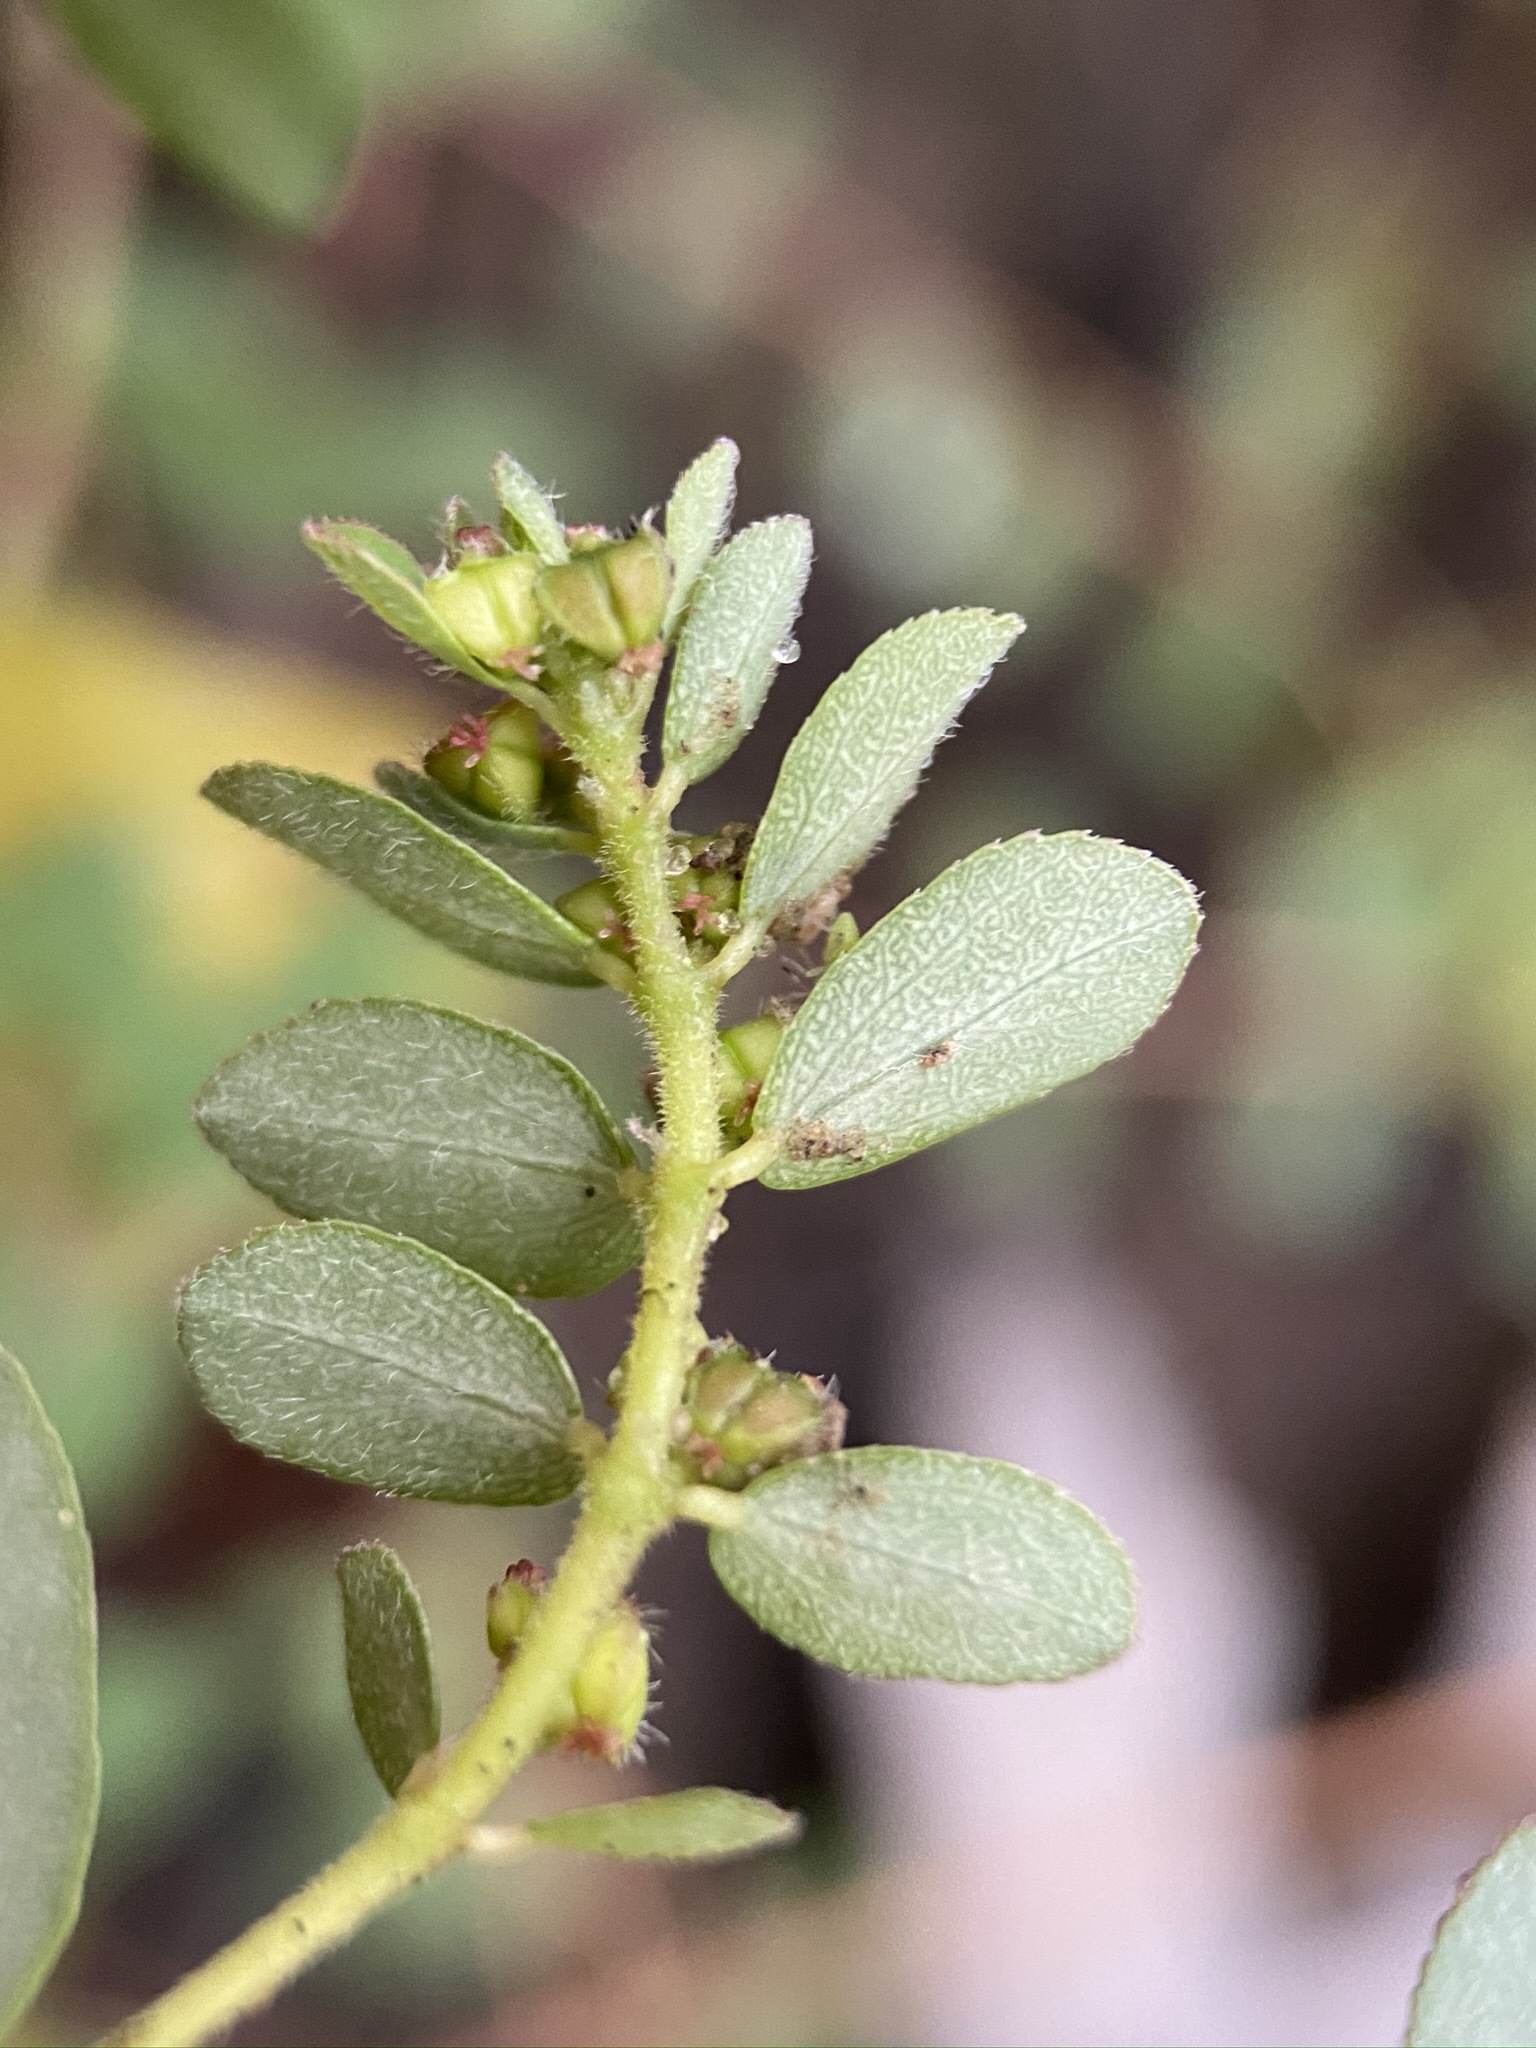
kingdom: Plantae
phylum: Tracheophyta
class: Magnoliopsida
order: Malpighiales
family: Euphorbiaceae
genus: Euphorbia
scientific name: Euphorbia prostrata
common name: Prostrate sandmat
